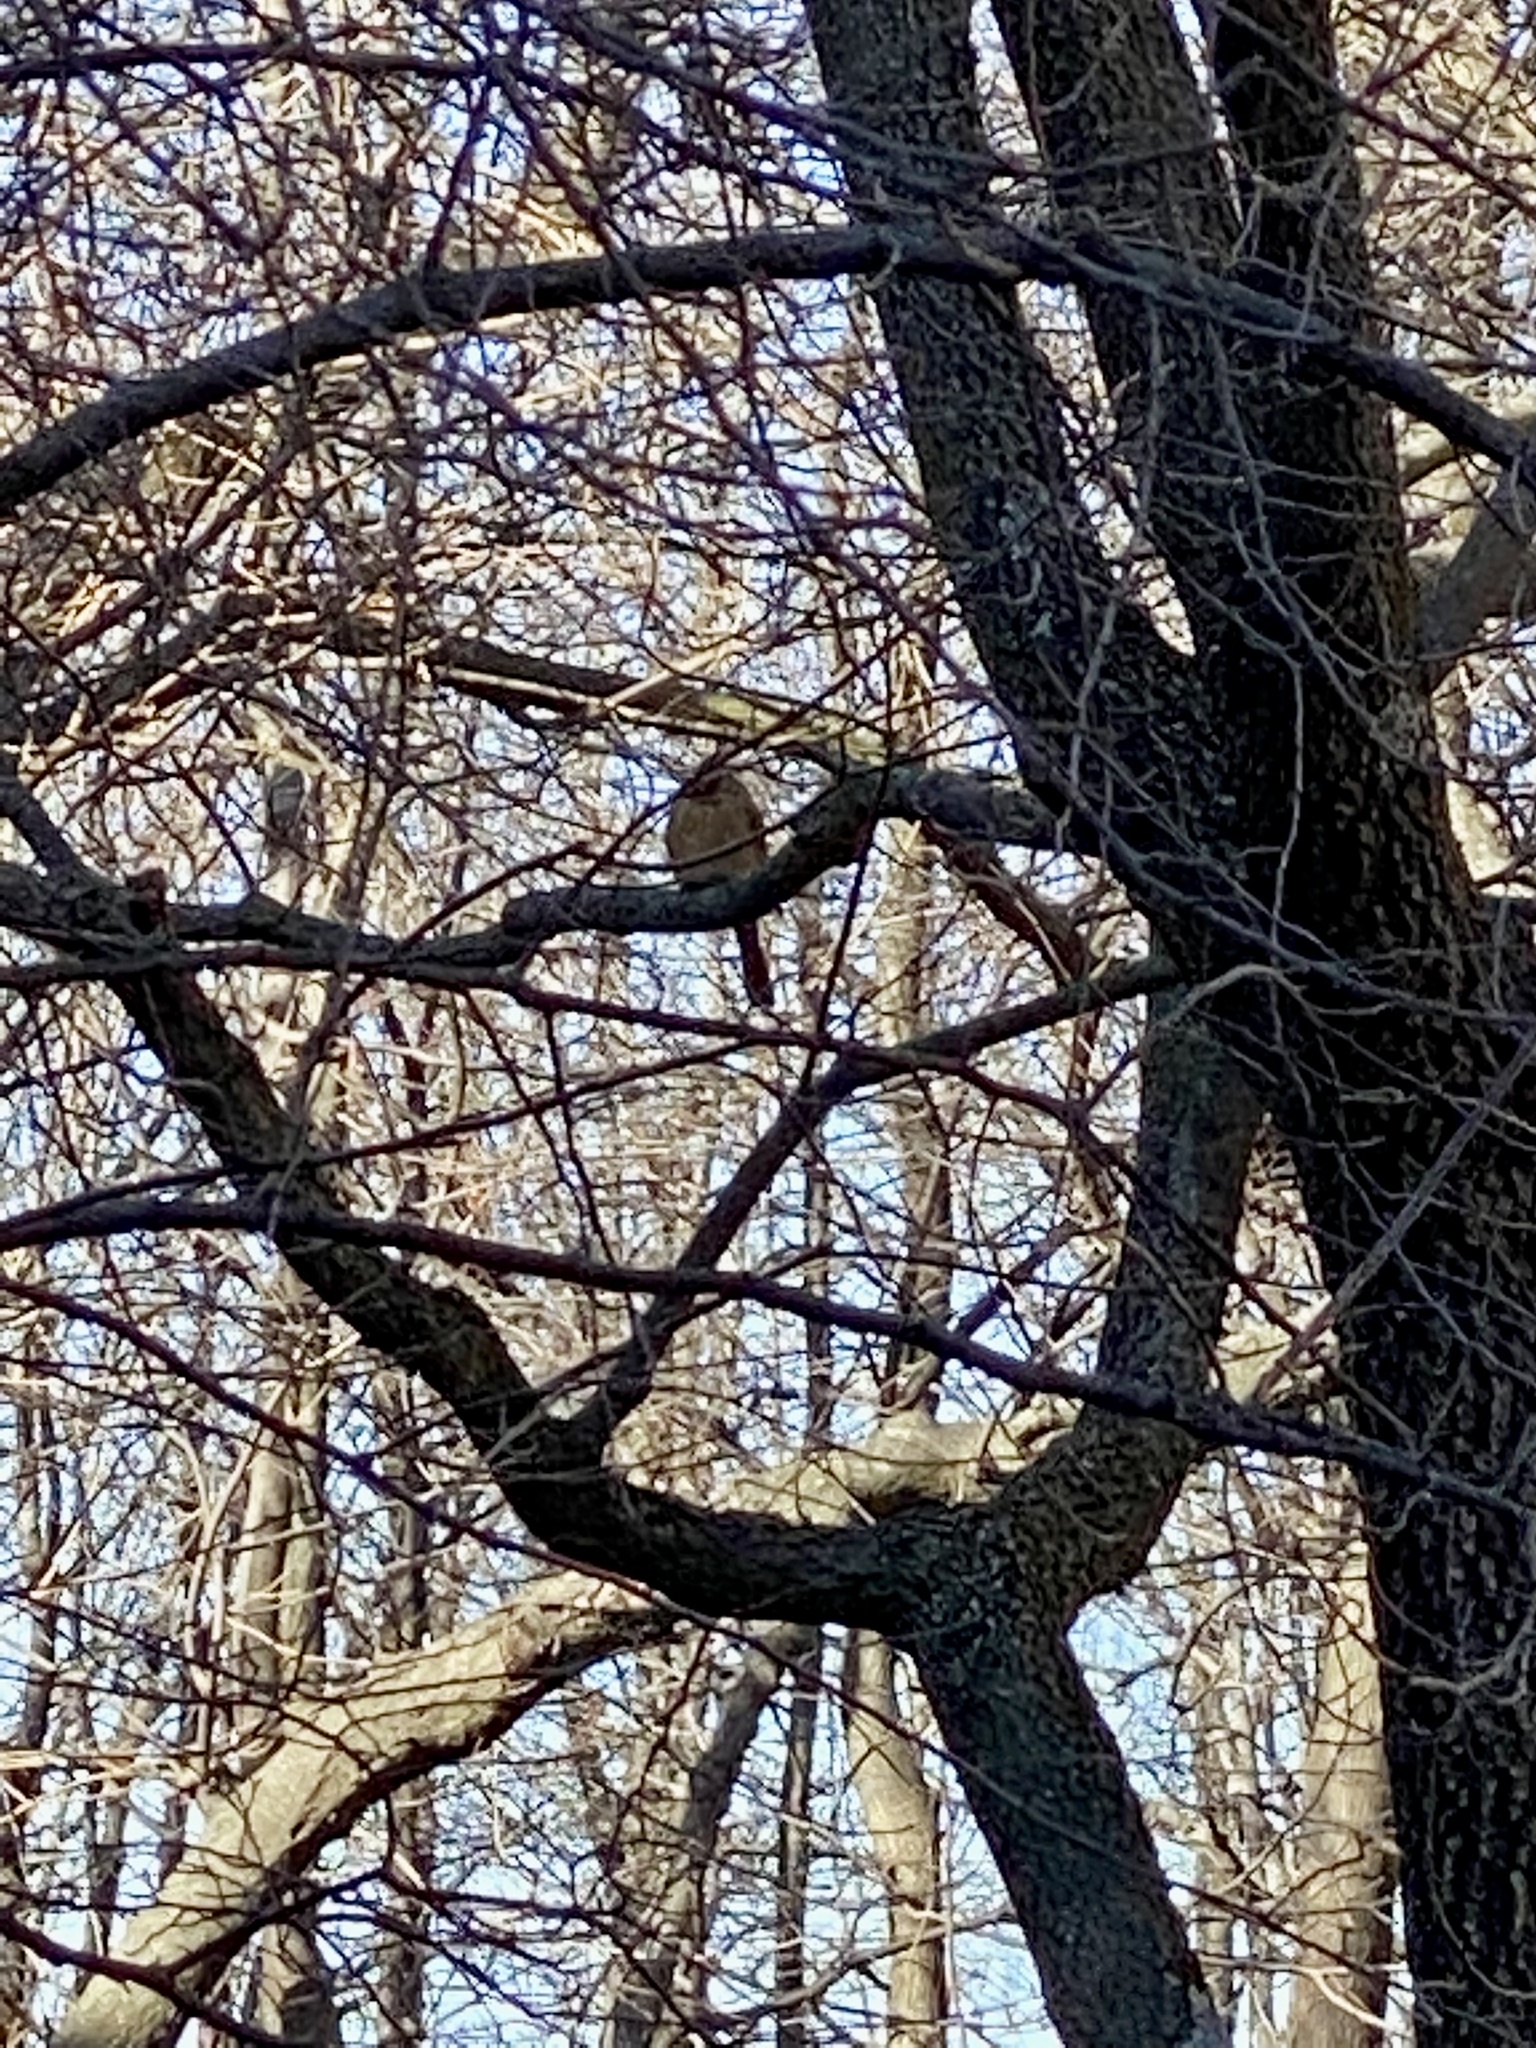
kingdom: Animalia
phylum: Chordata
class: Aves
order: Passeriformes
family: Cardinalidae
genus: Cardinalis
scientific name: Cardinalis cardinalis
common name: Northern cardinal
